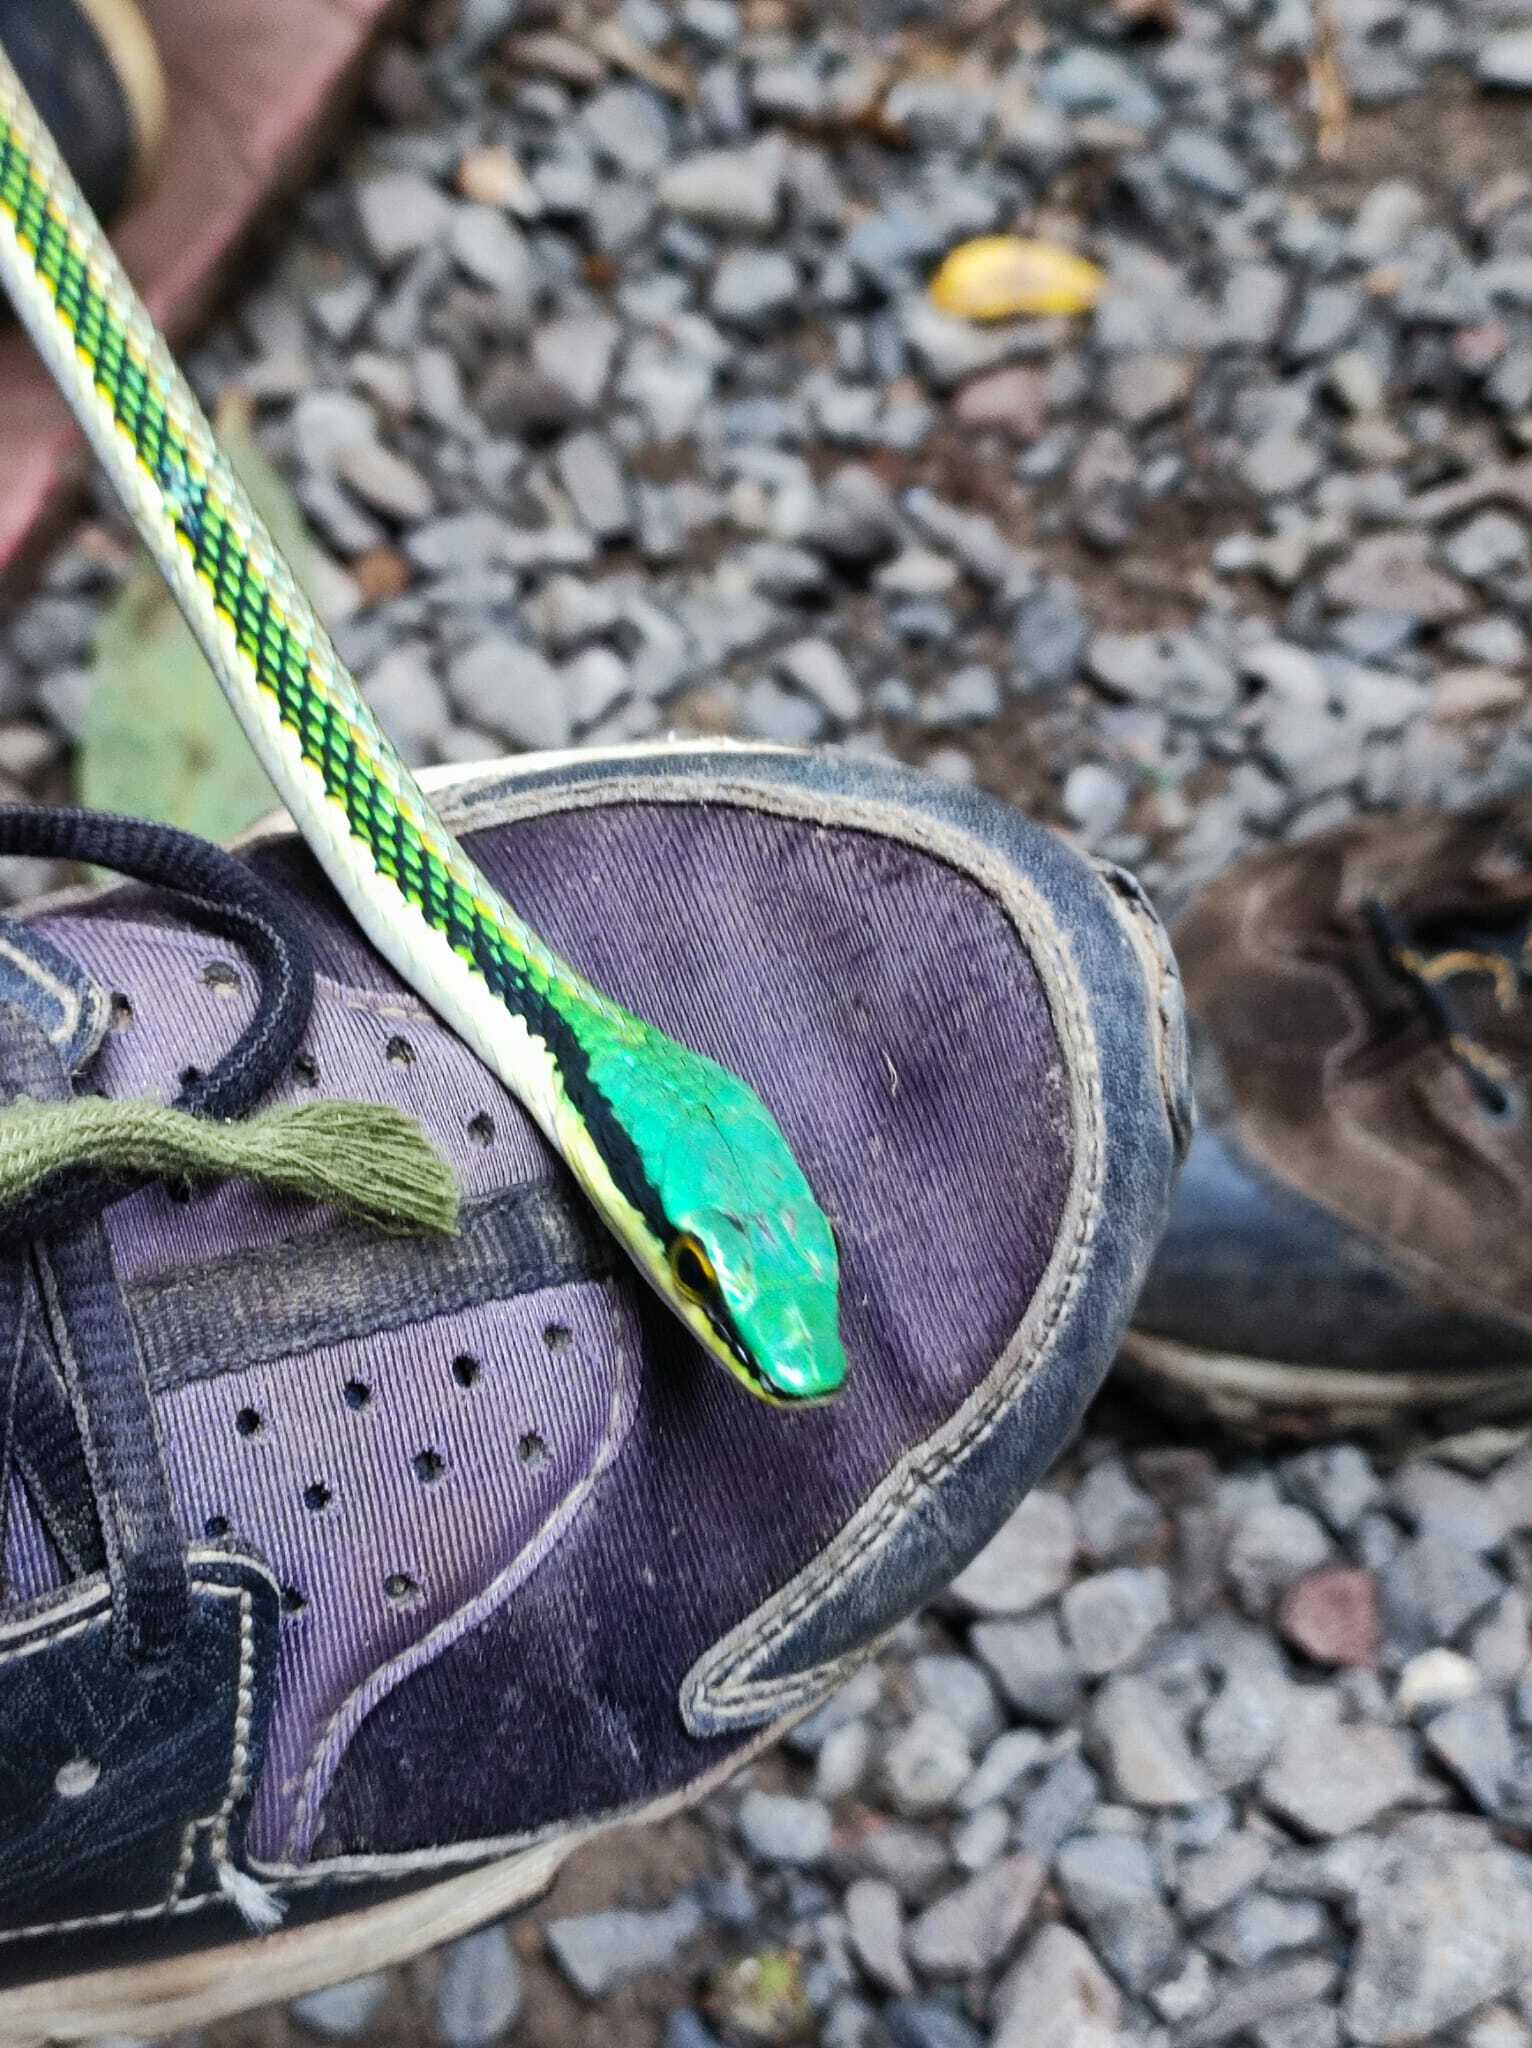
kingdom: Animalia
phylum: Chordata
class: Squamata
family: Colubridae
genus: Leptophis
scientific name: Leptophis mexicanus
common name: Mexican parrot snake
